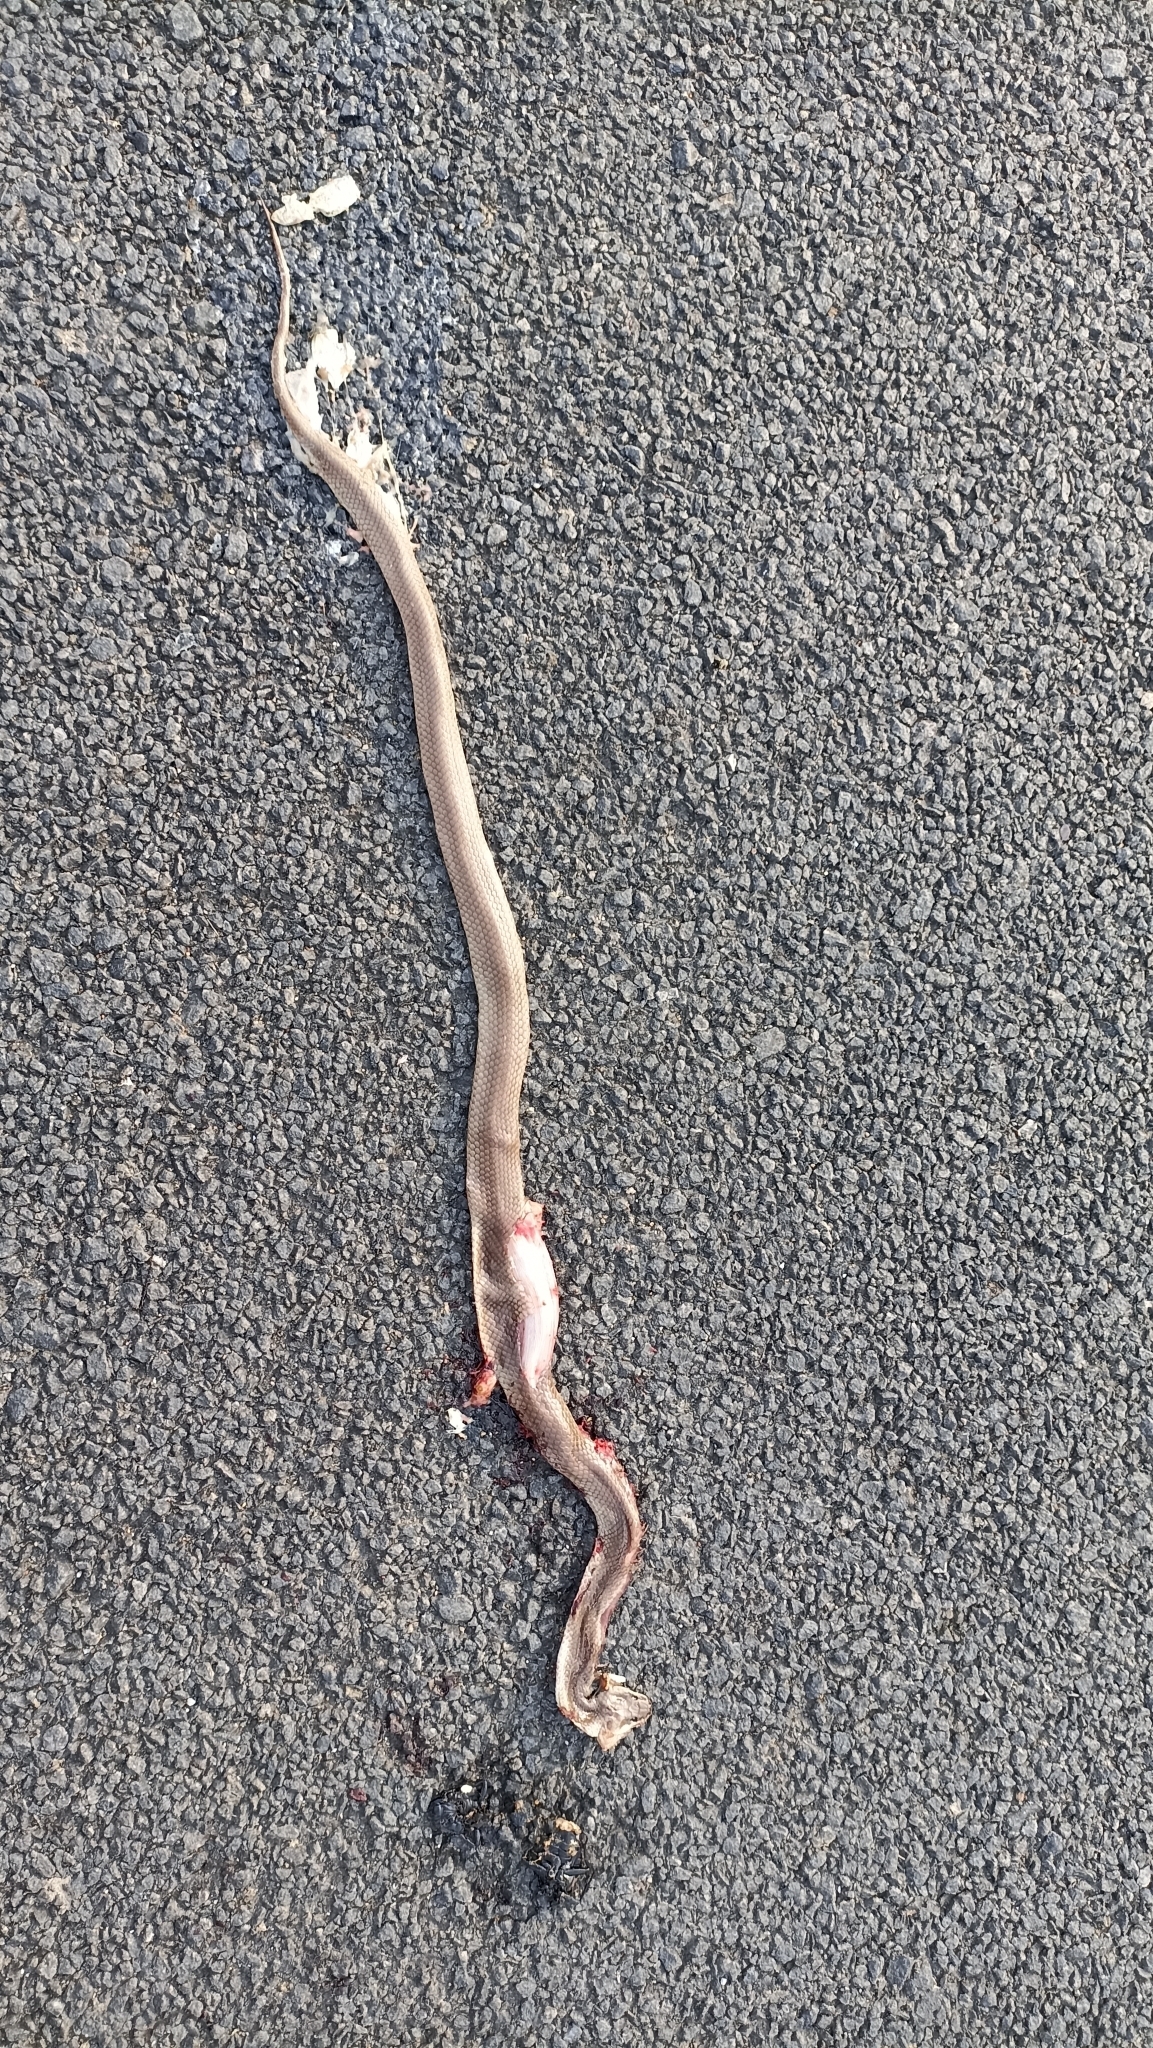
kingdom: Animalia
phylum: Chordata
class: Squamata
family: Elapidae
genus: Naja
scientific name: Naja naja
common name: Indian cobra
